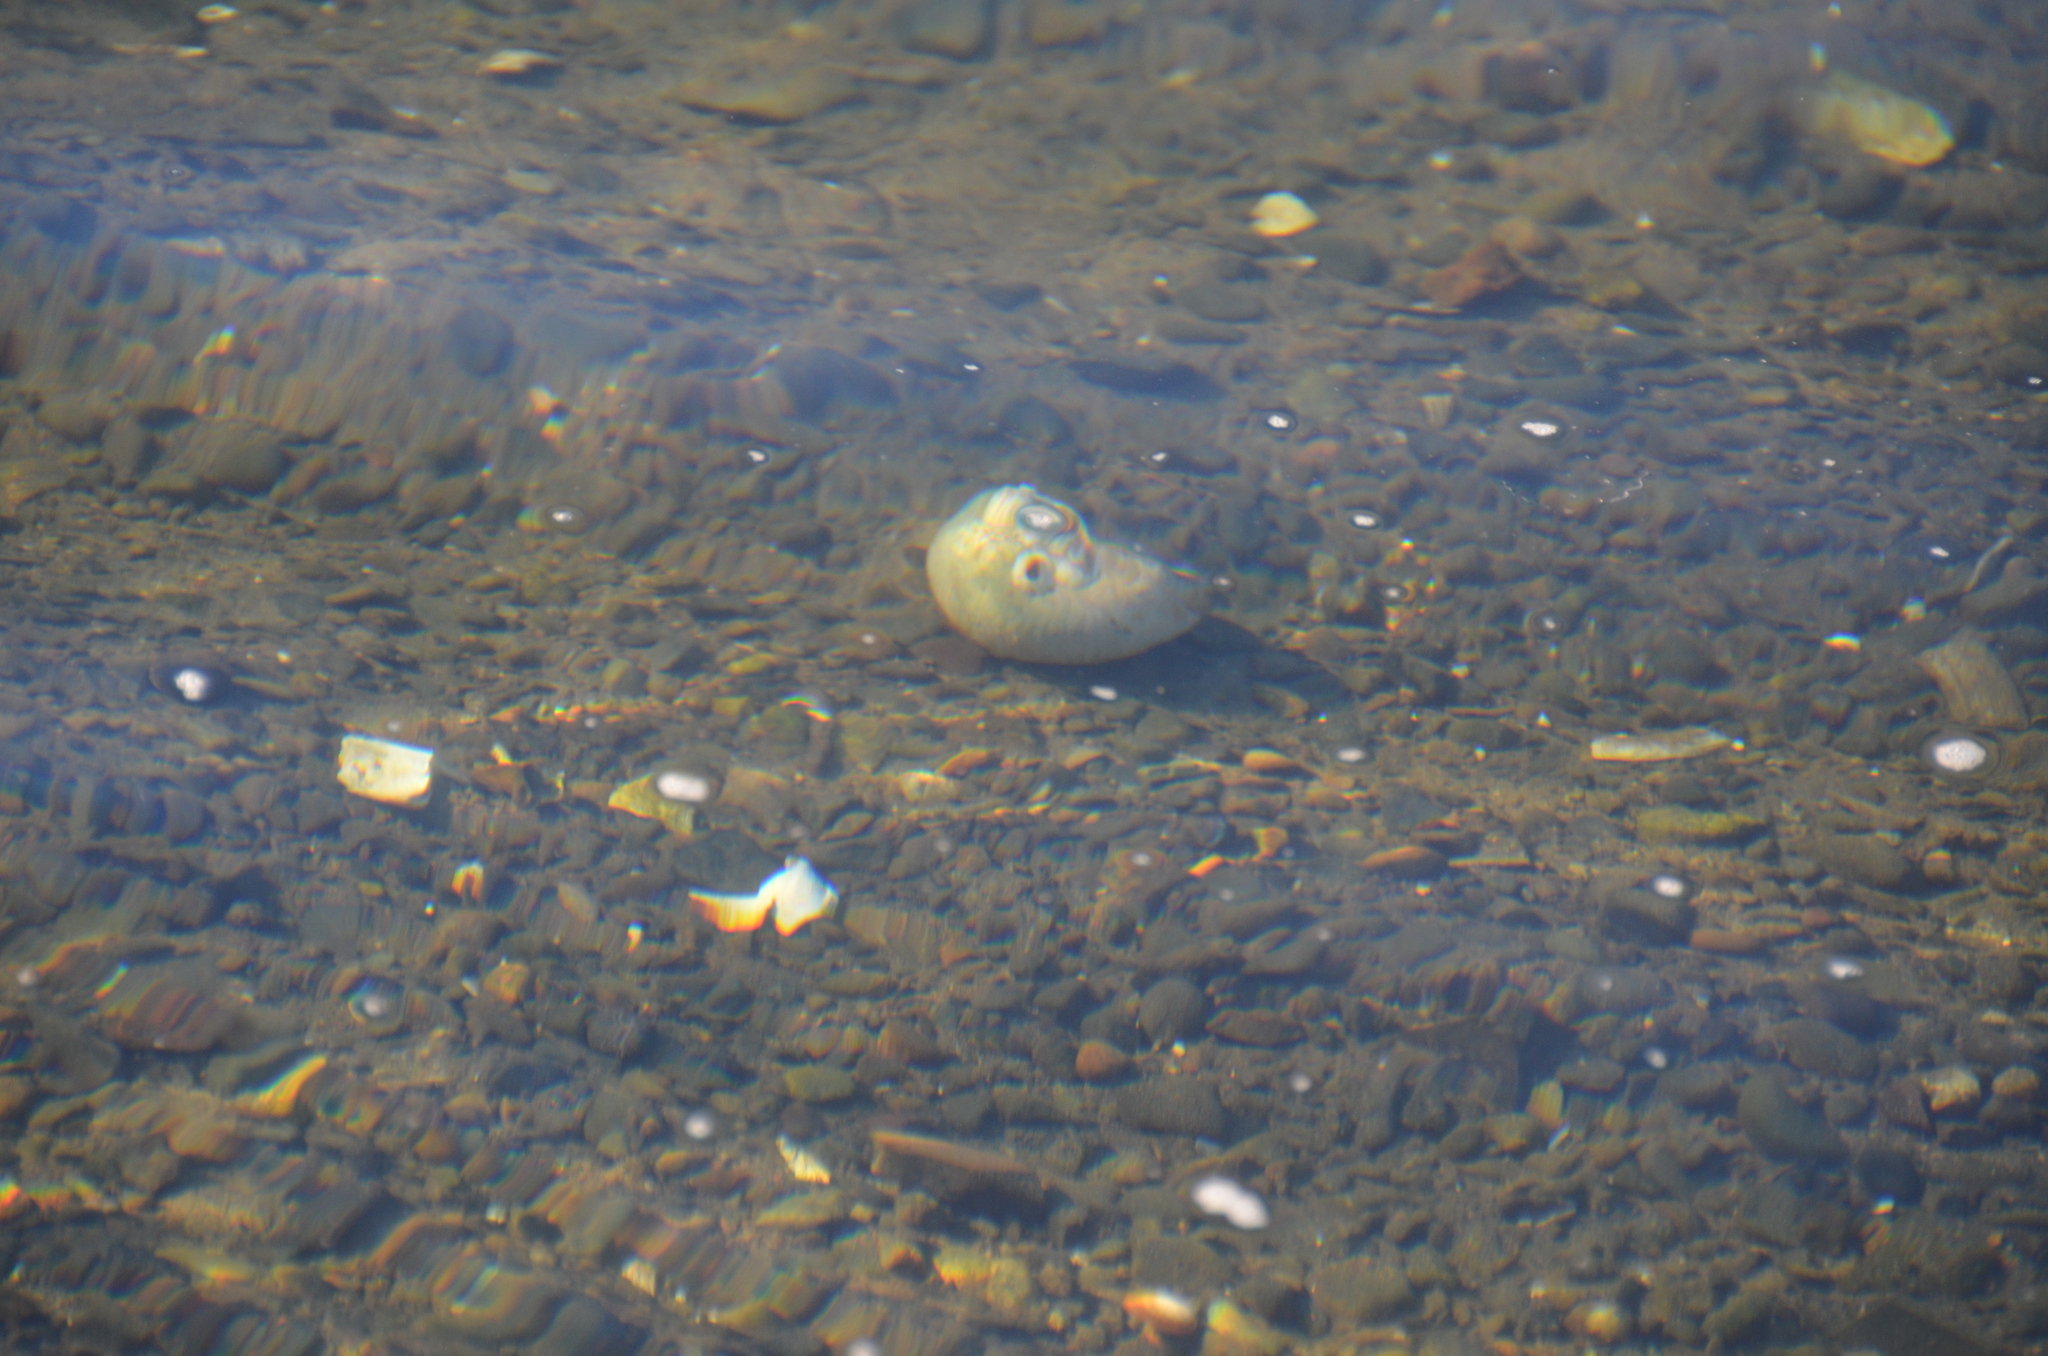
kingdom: Animalia
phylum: Mollusca
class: Gastropoda
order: Littorinimorpha
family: Naticidae
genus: Neverita
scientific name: Neverita lewisii
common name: Lewis' moonsnail
